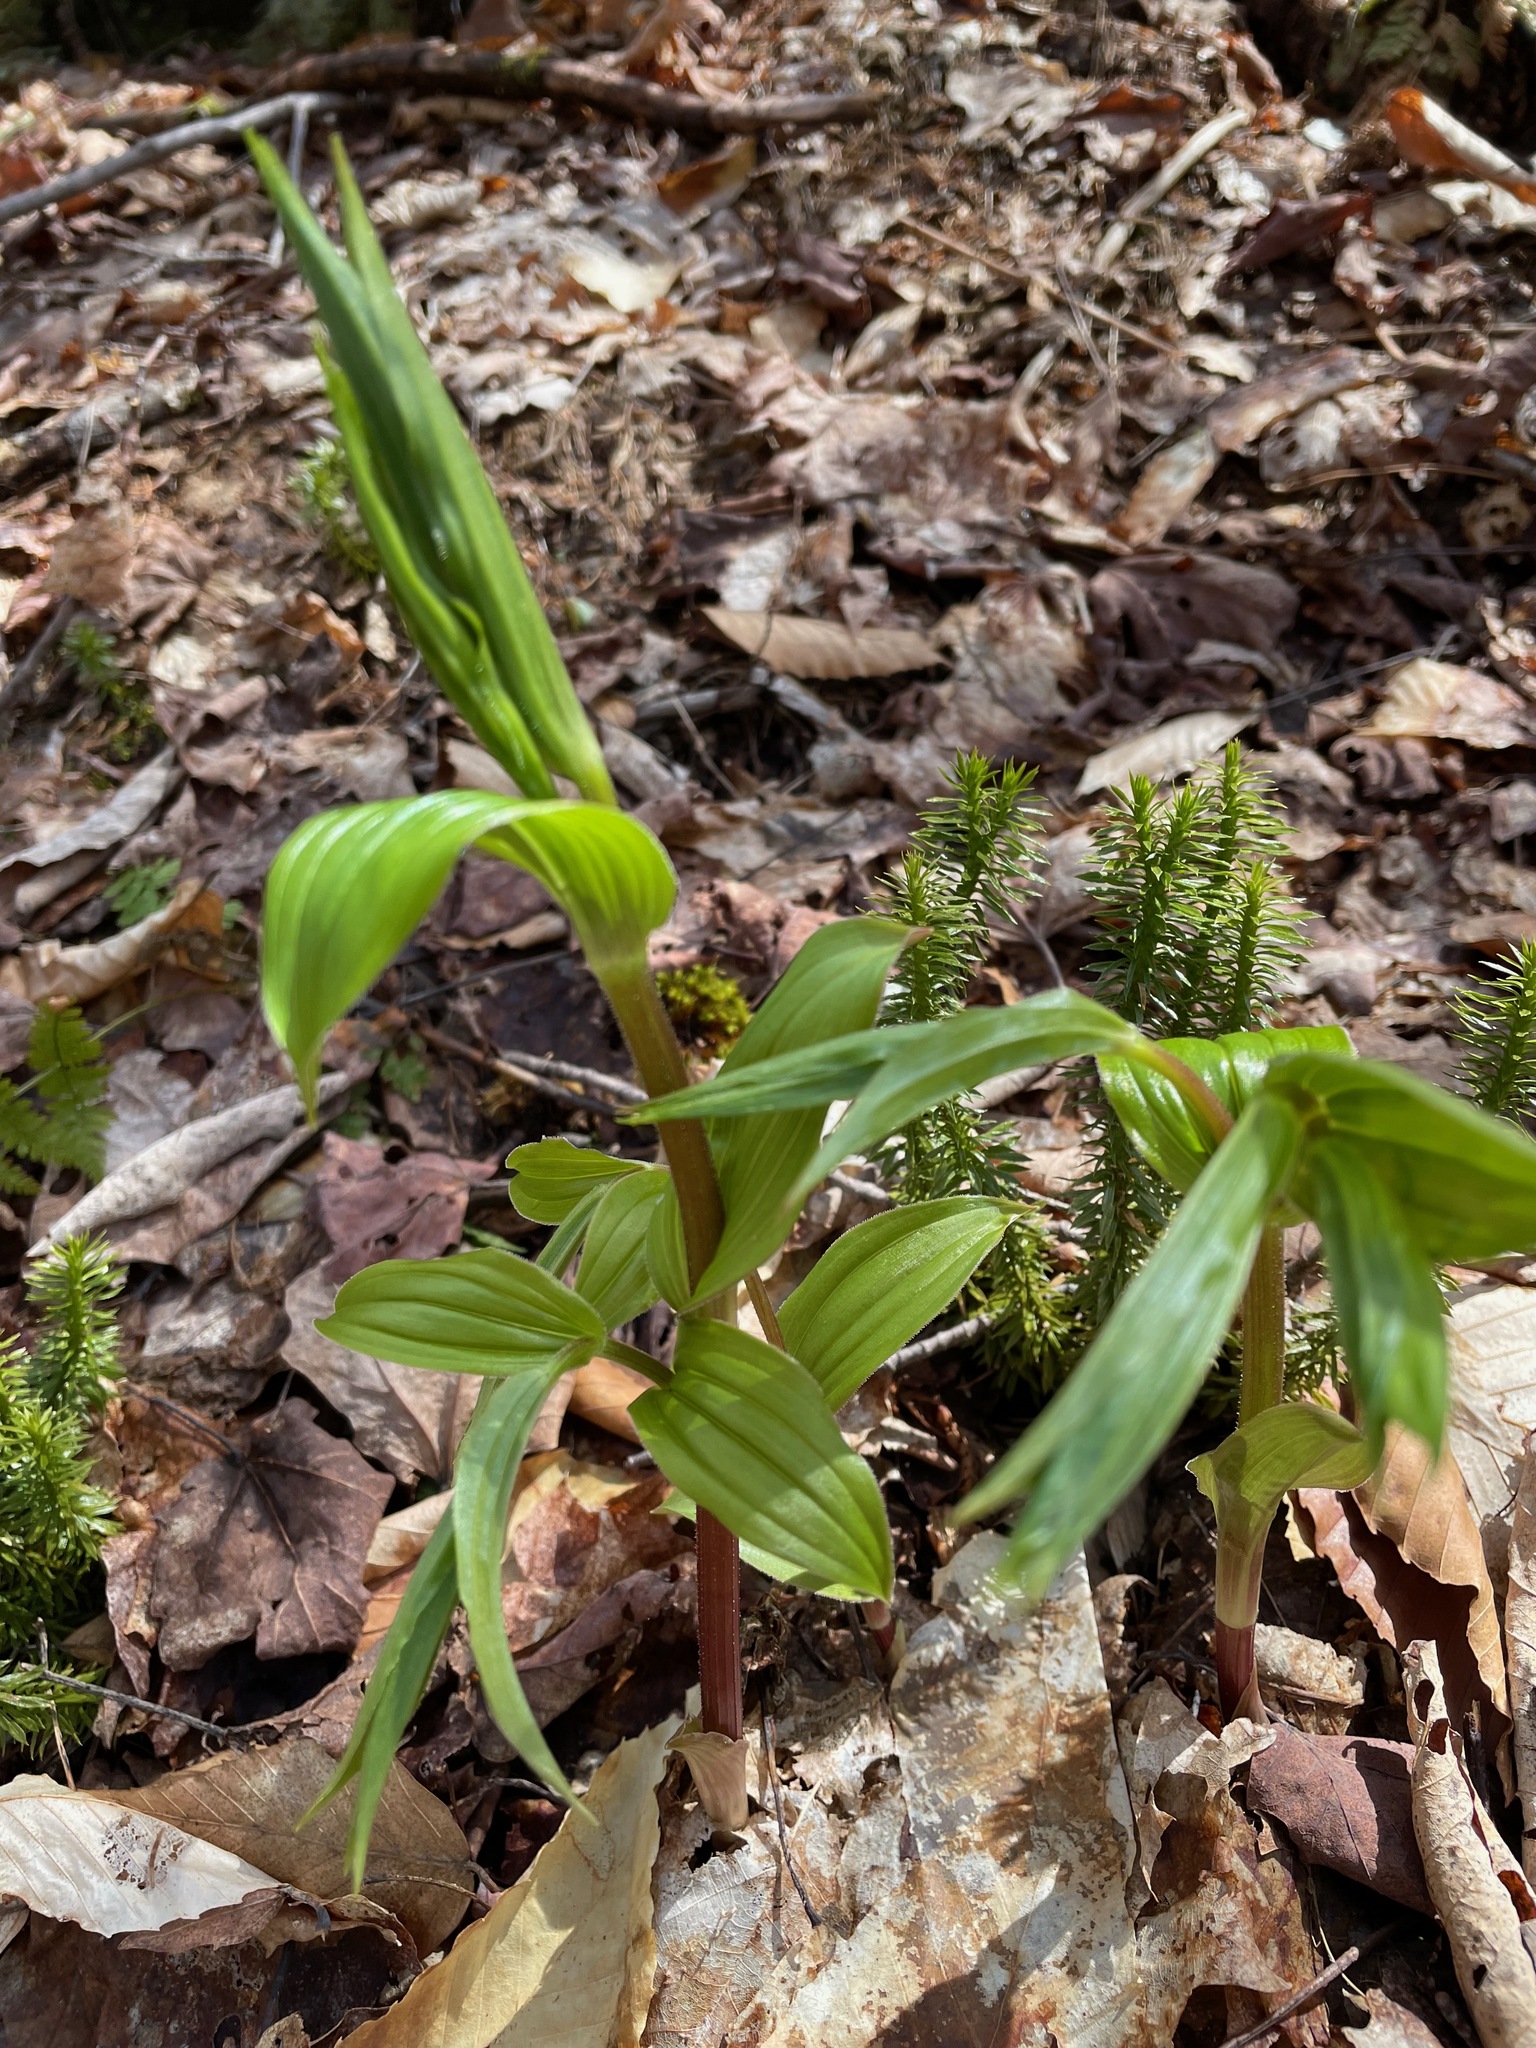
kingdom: Plantae
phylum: Tracheophyta
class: Liliopsida
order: Liliales
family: Liliaceae
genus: Streptopus
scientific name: Streptopus lanceolatus
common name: Rose mandarin
